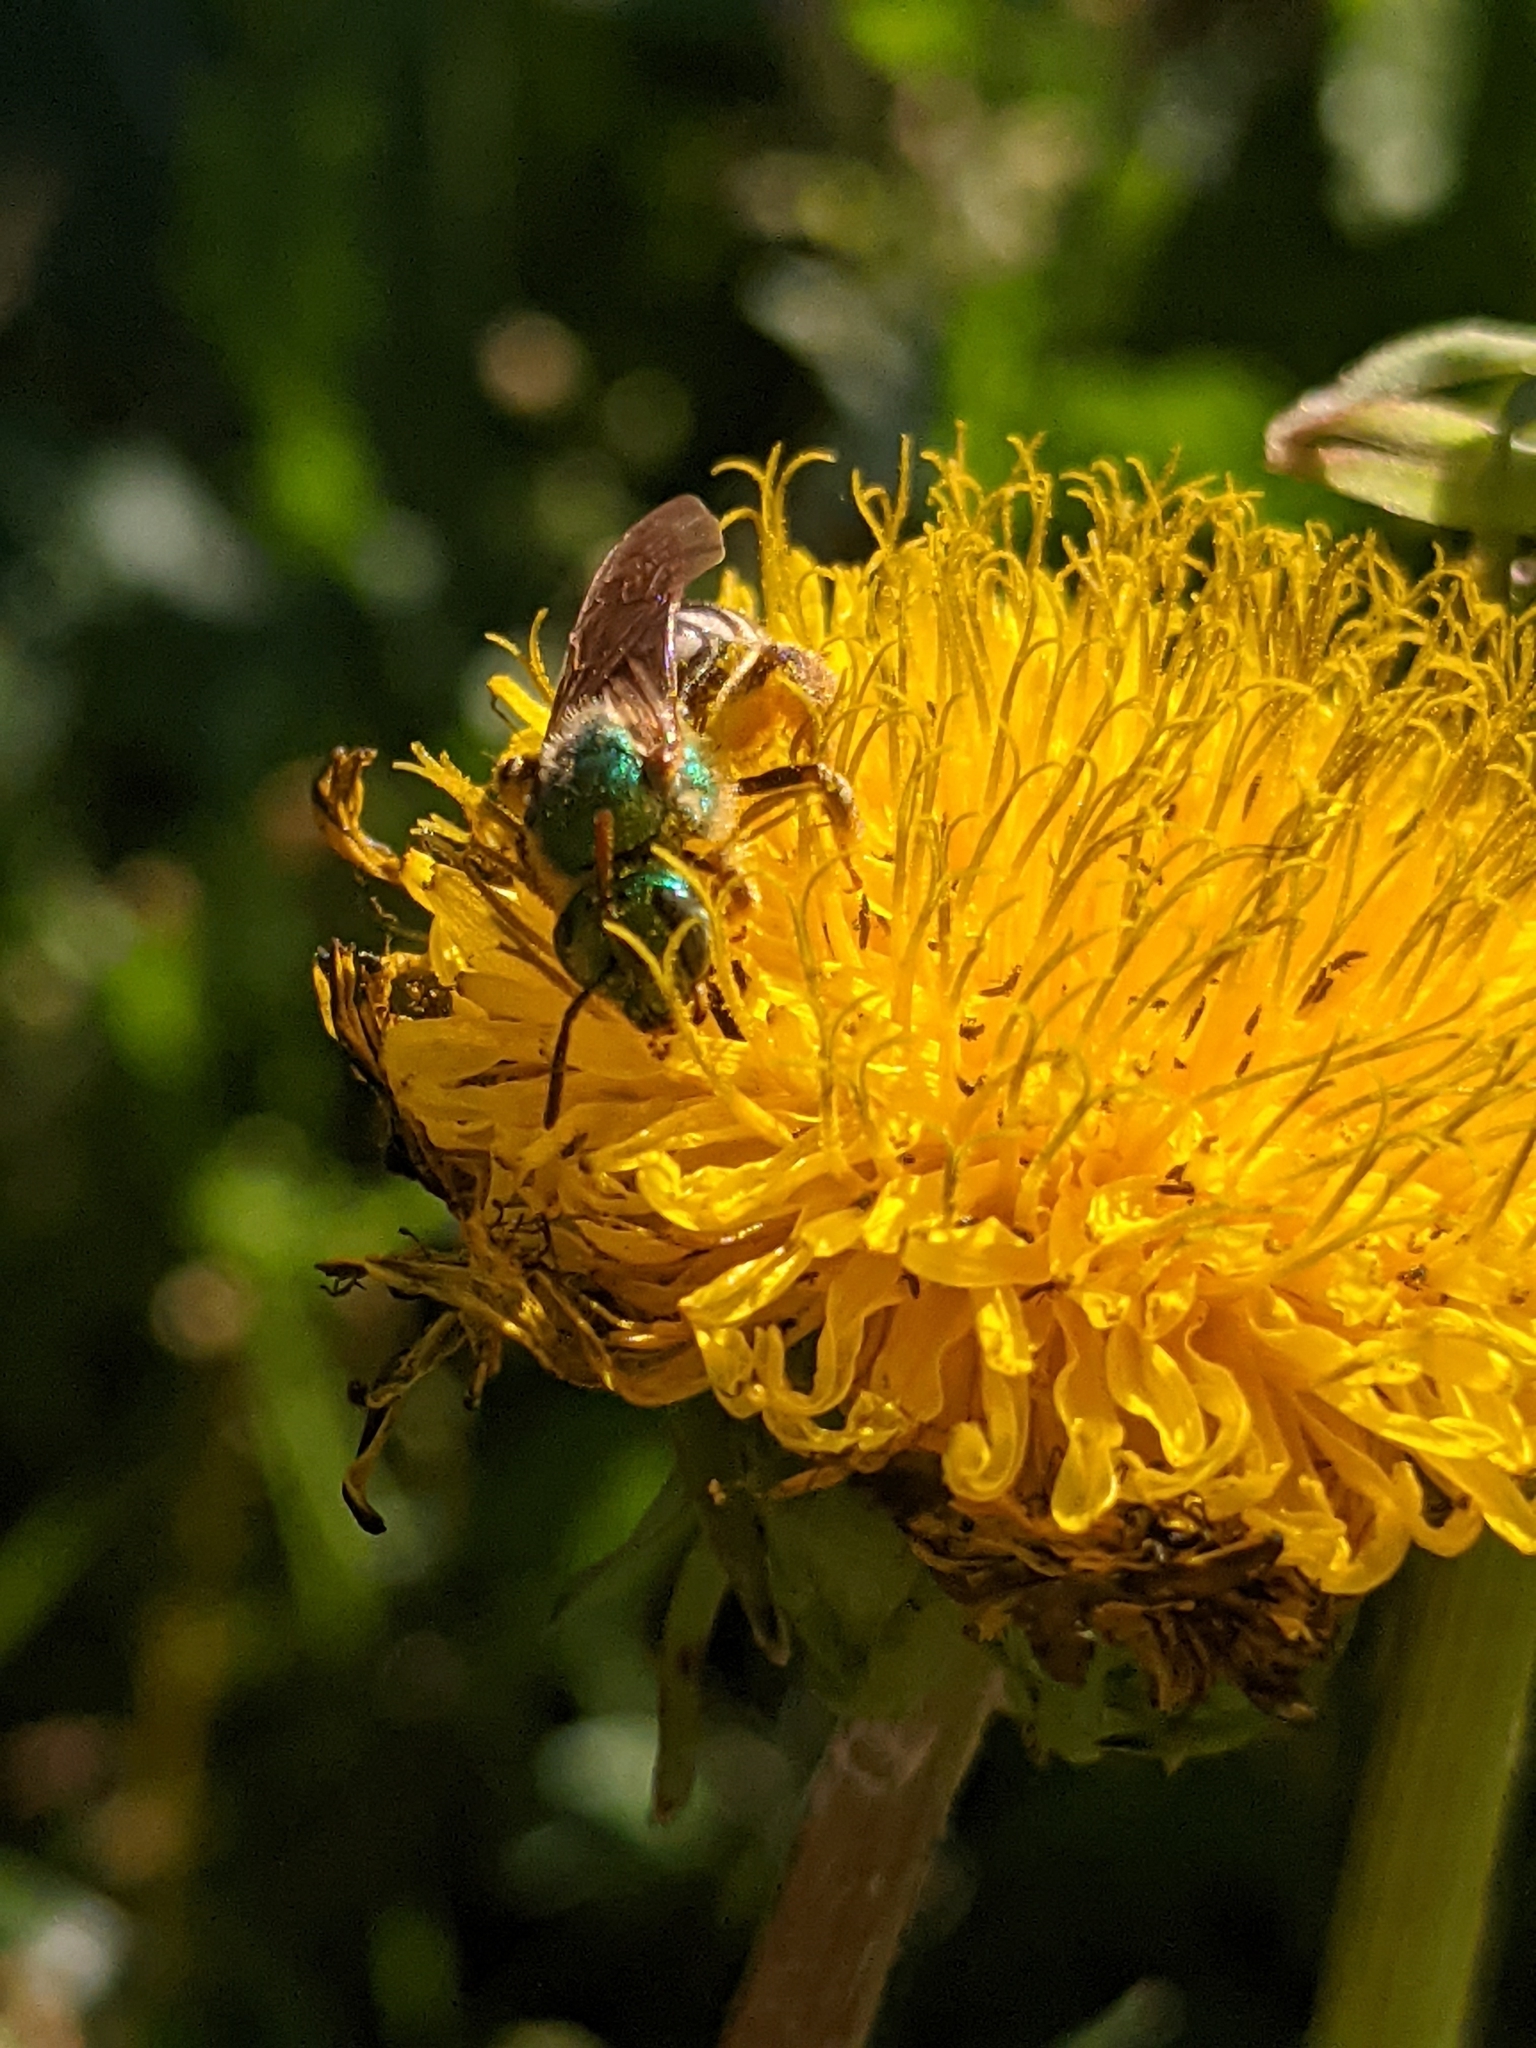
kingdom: Animalia
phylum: Arthropoda
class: Insecta
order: Hymenoptera
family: Halictidae
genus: Agapostemon
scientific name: Agapostemon virescens
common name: Bicolored striped sweat bee
